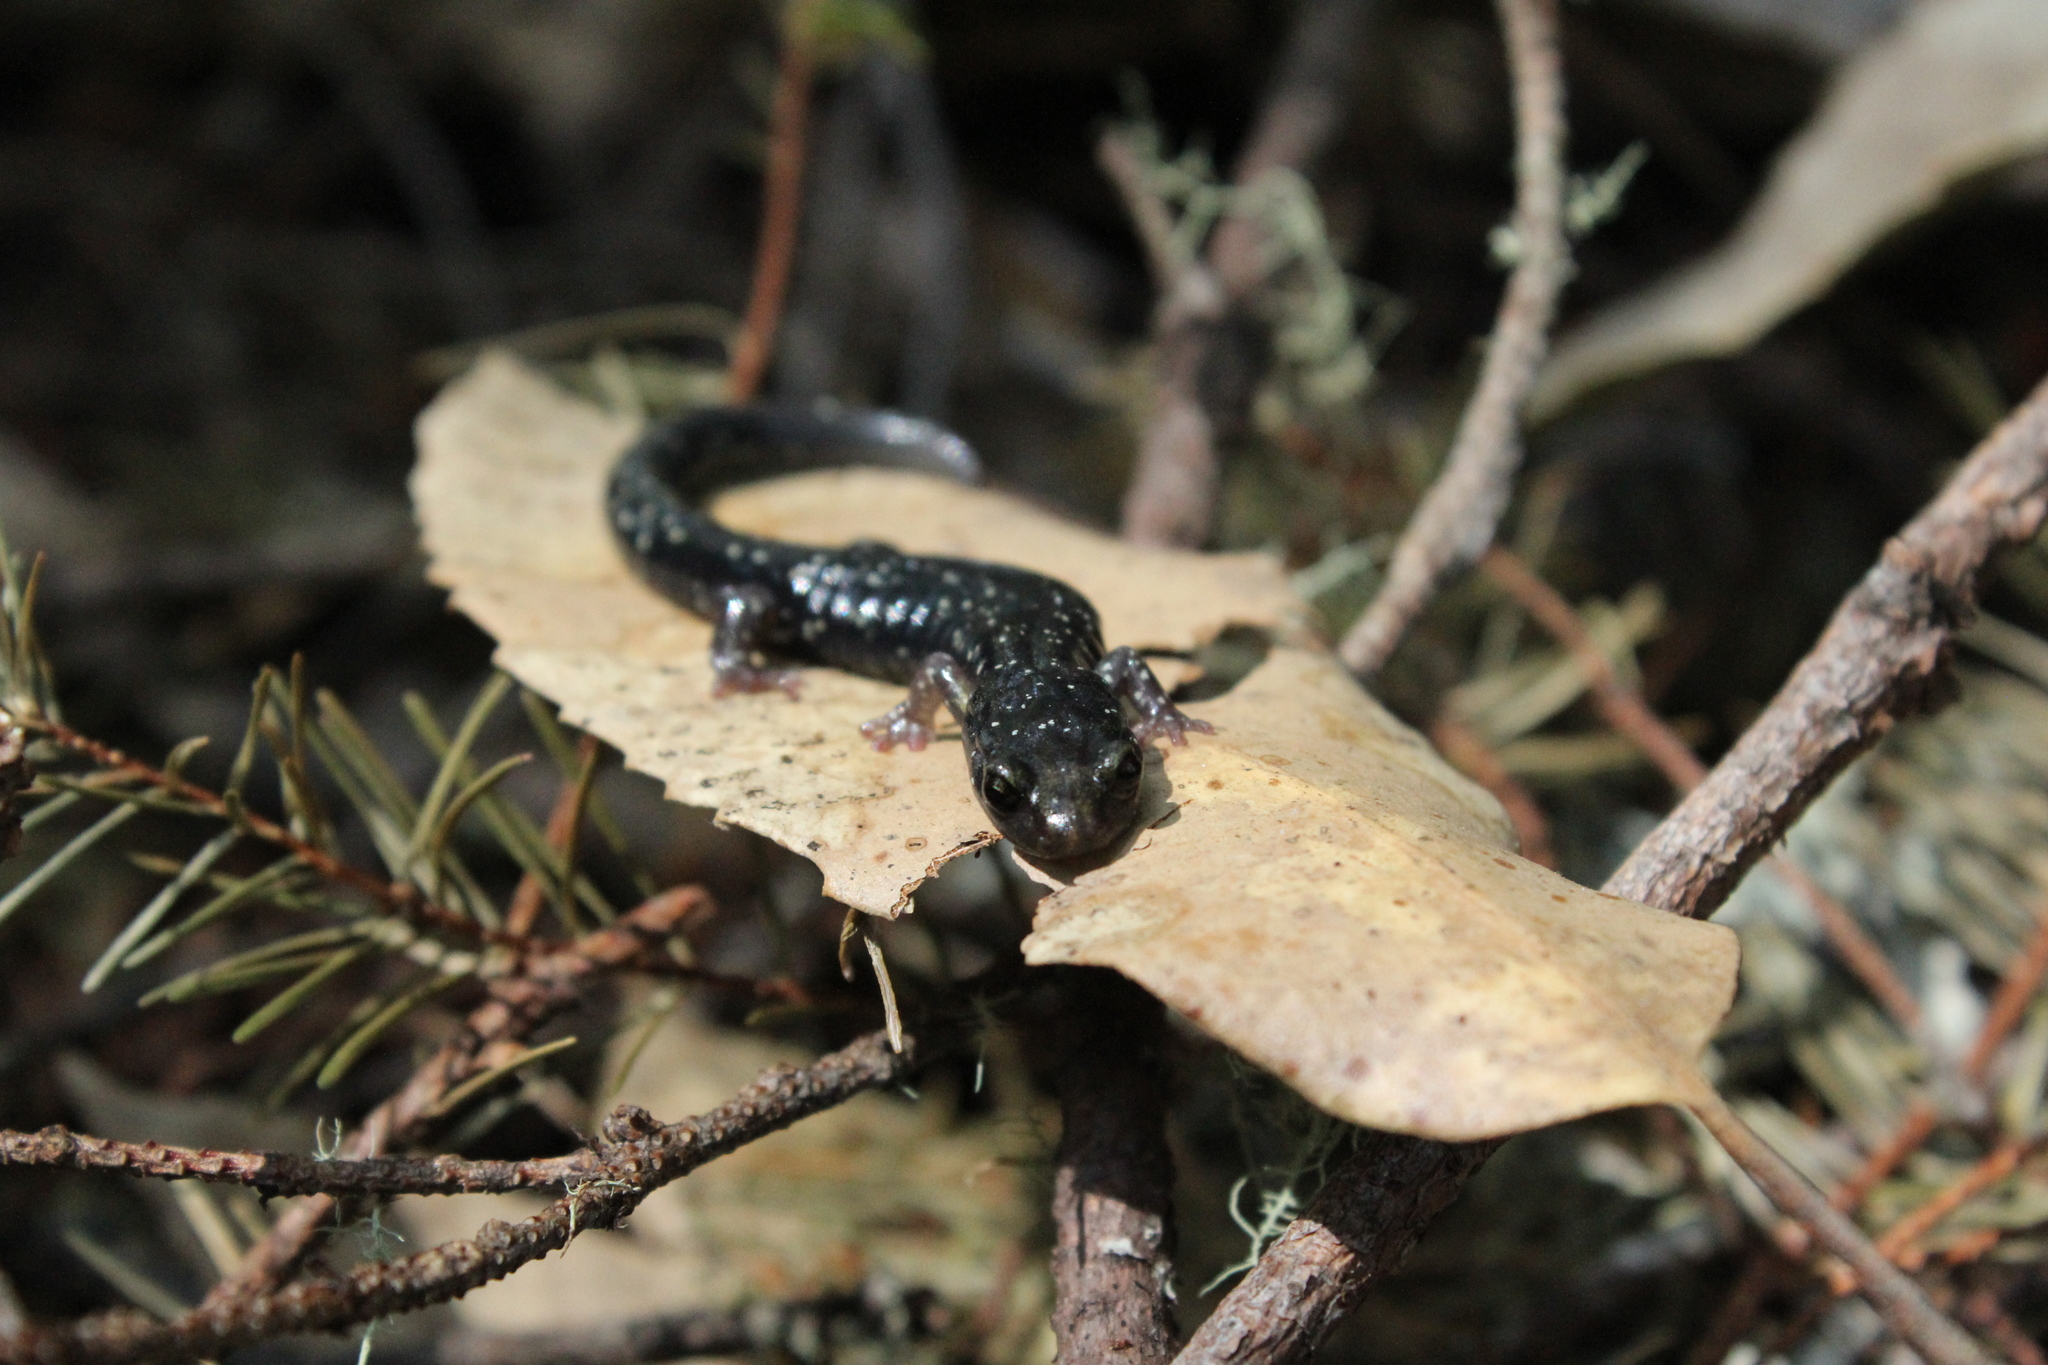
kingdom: Animalia
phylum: Chordata
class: Amphibia
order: Caudata
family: Plethodontidae
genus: Aneides
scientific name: Aneides flavipunctatus
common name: Black salamander
